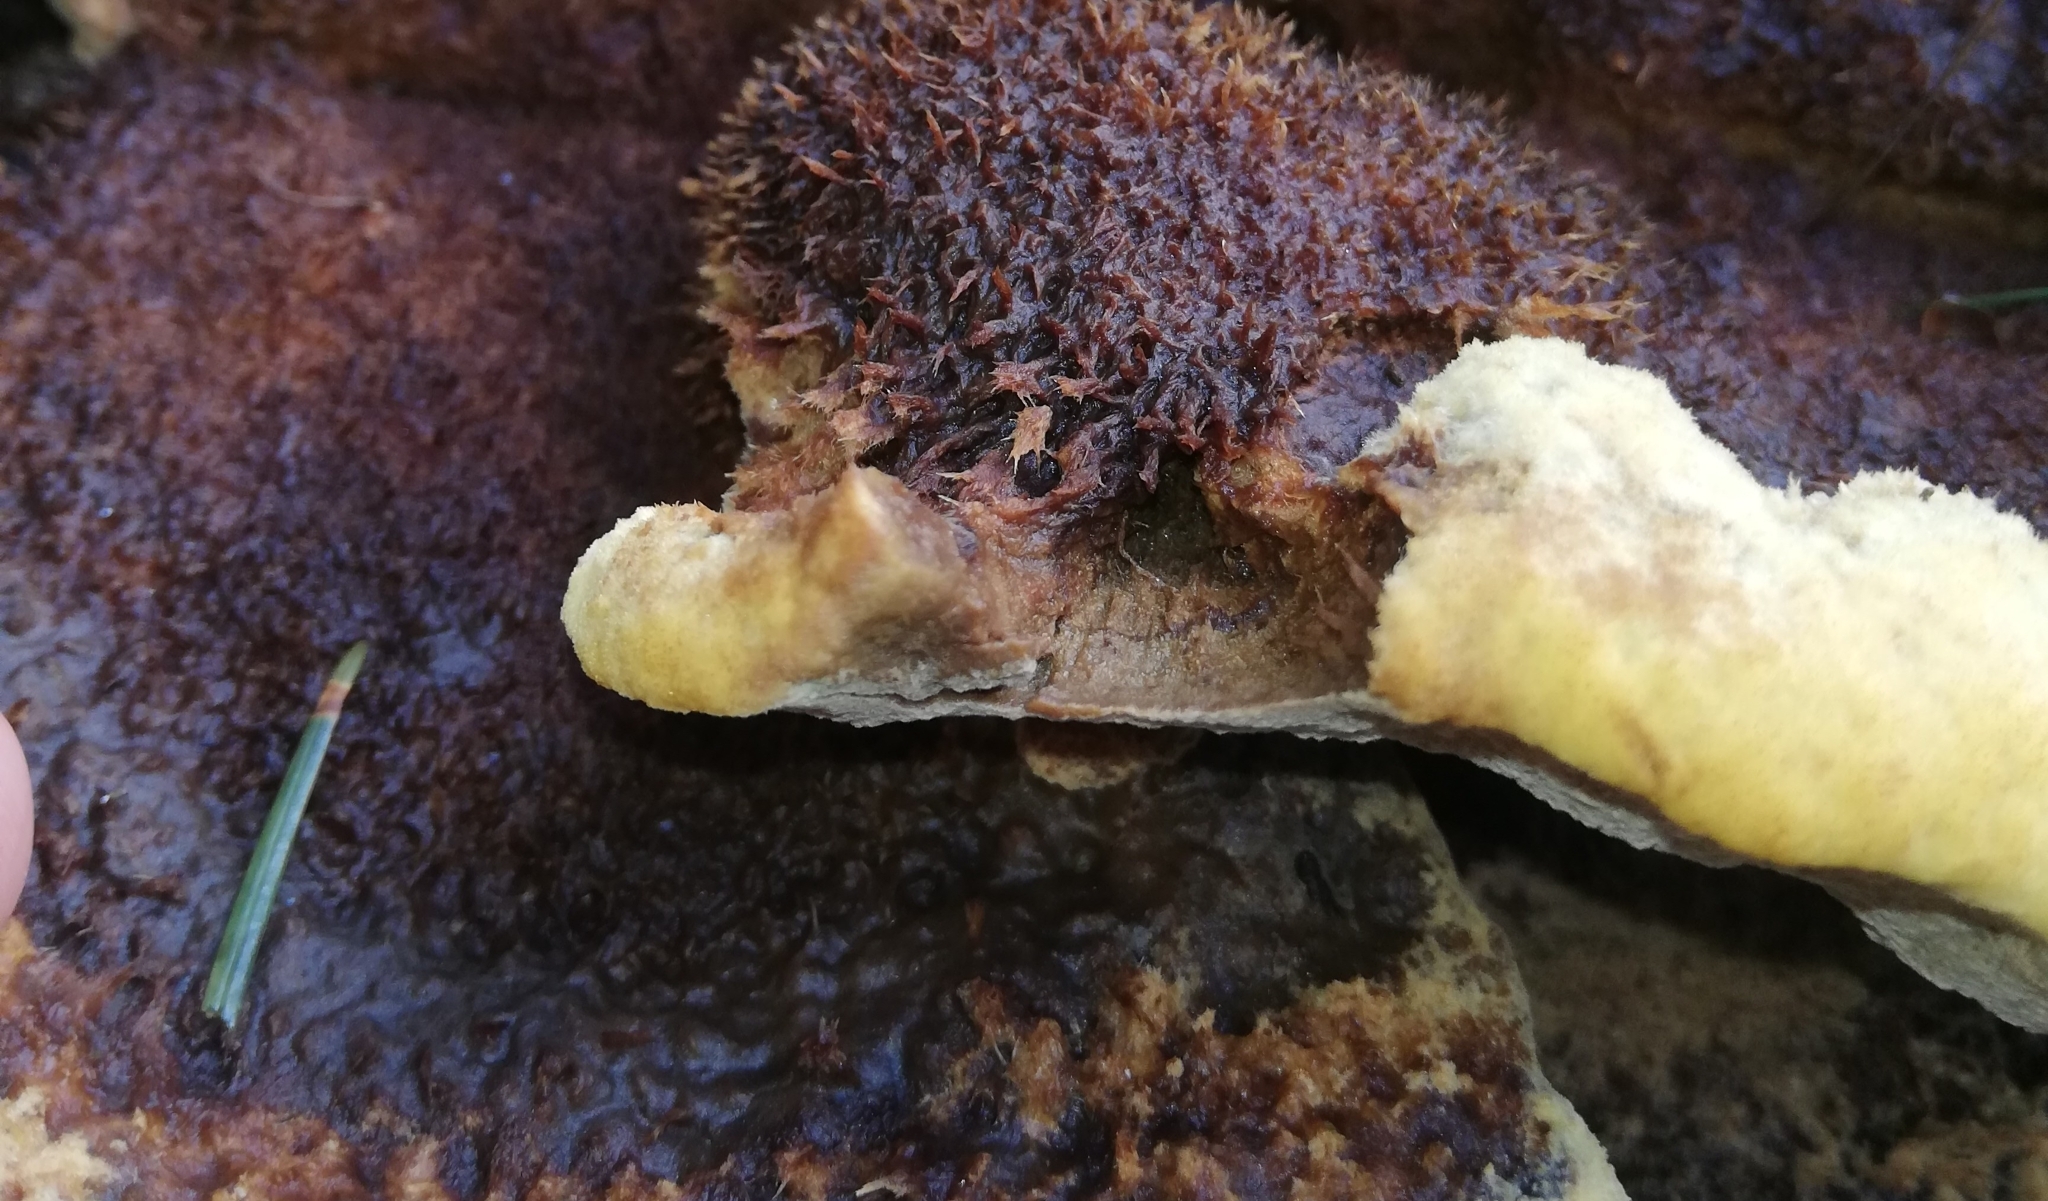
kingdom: Fungi
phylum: Basidiomycota
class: Agaricomycetes
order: Polyporales
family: Laetiporaceae
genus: Phaeolus
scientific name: Phaeolus schweinitzii
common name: Dyer's mazegill
